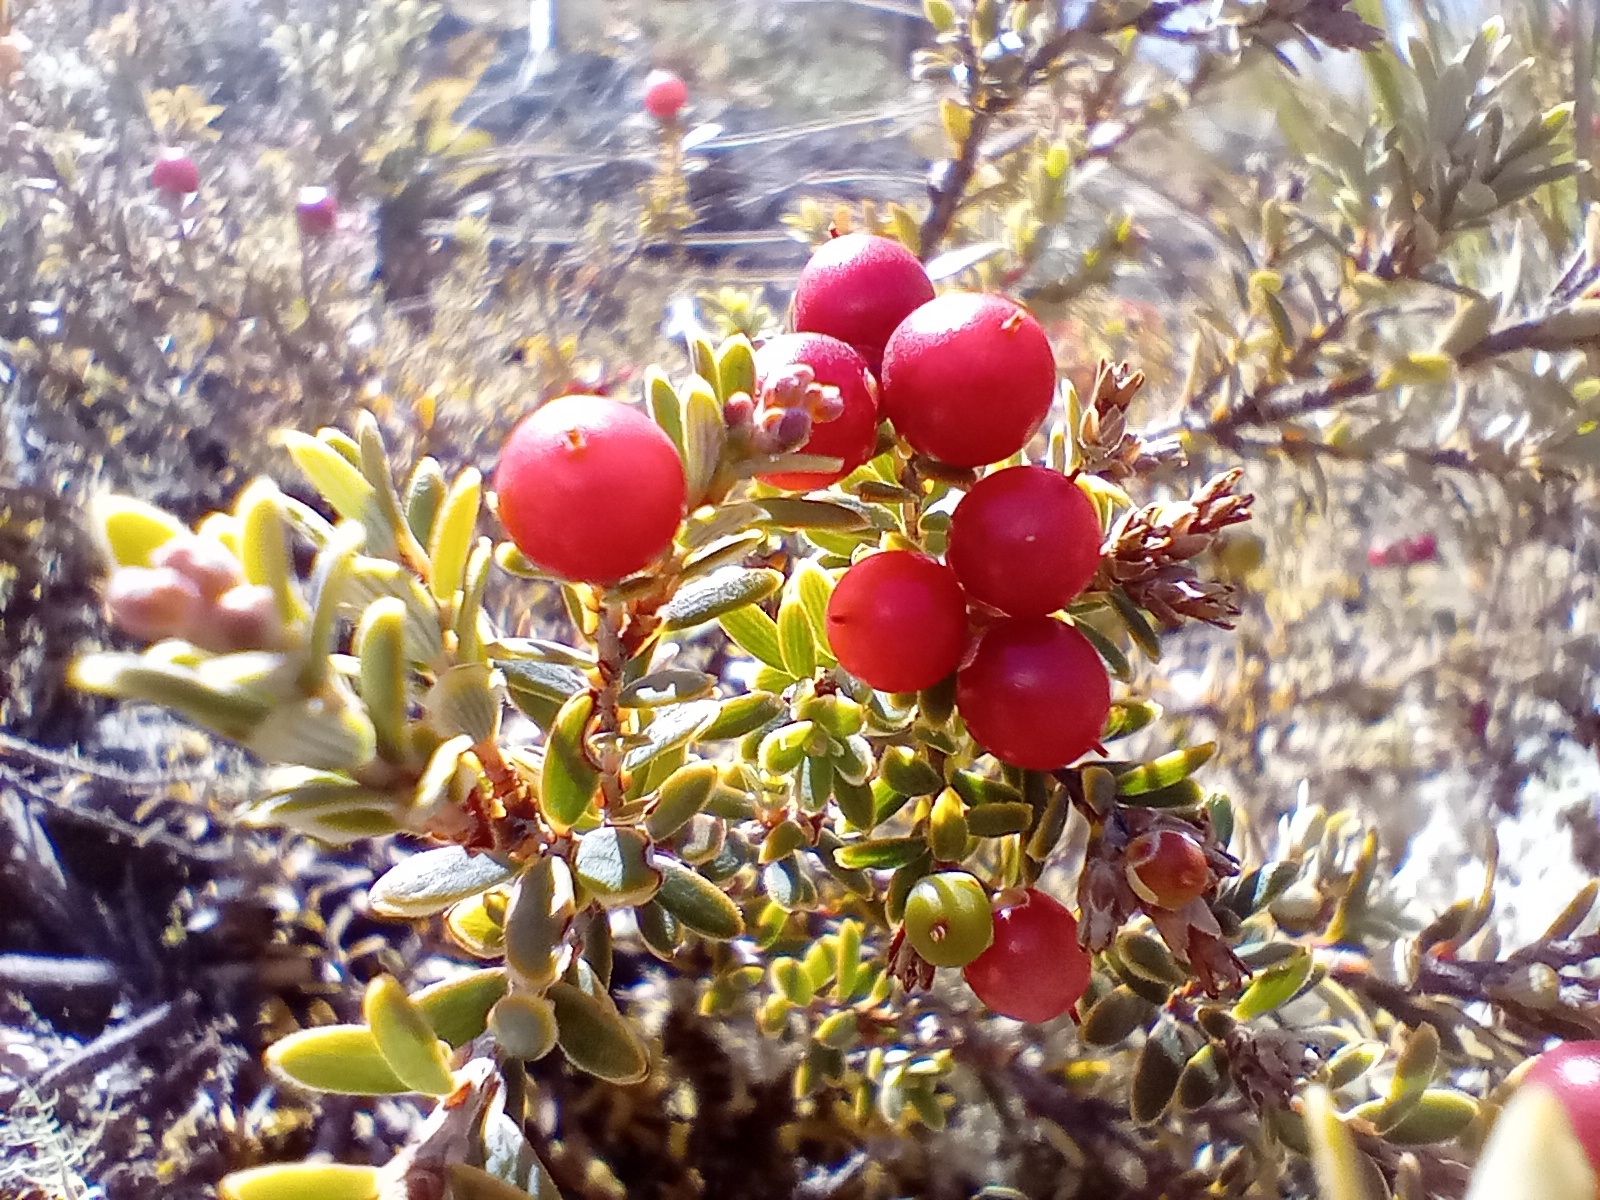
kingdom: Plantae
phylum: Tracheophyta
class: Magnoliopsida
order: Ericales
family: Ericaceae
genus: Acrothamnus
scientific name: Acrothamnus colensoi
